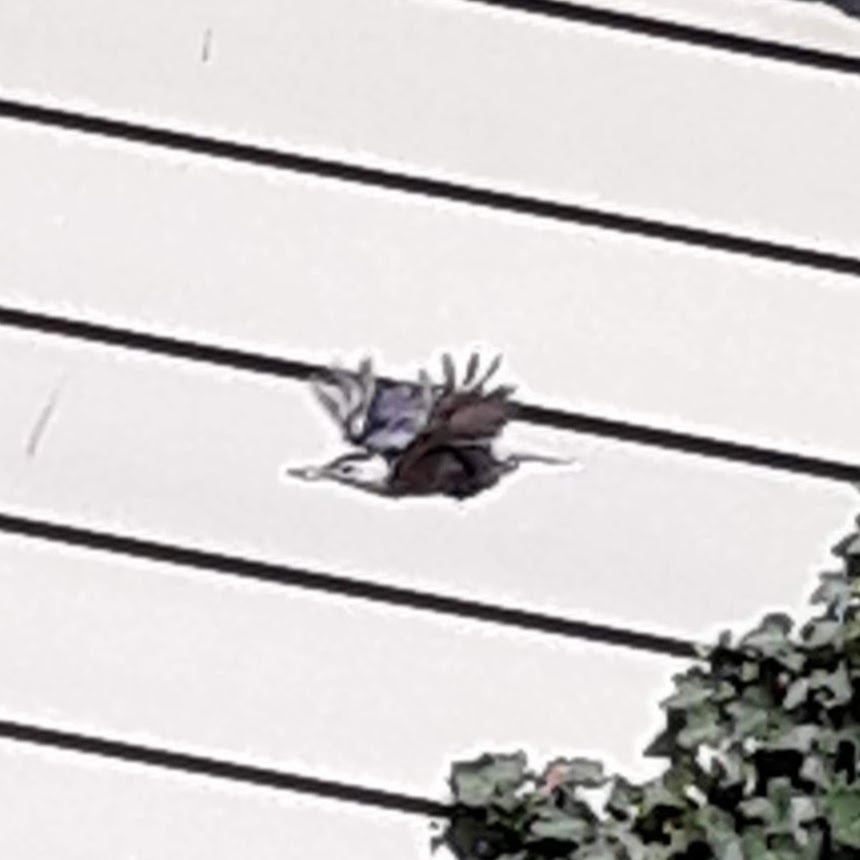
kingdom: Animalia
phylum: Chordata
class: Aves
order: Passeriformes
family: Sittidae
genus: Sitta
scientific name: Sitta carolinensis
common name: White-breasted nuthatch
